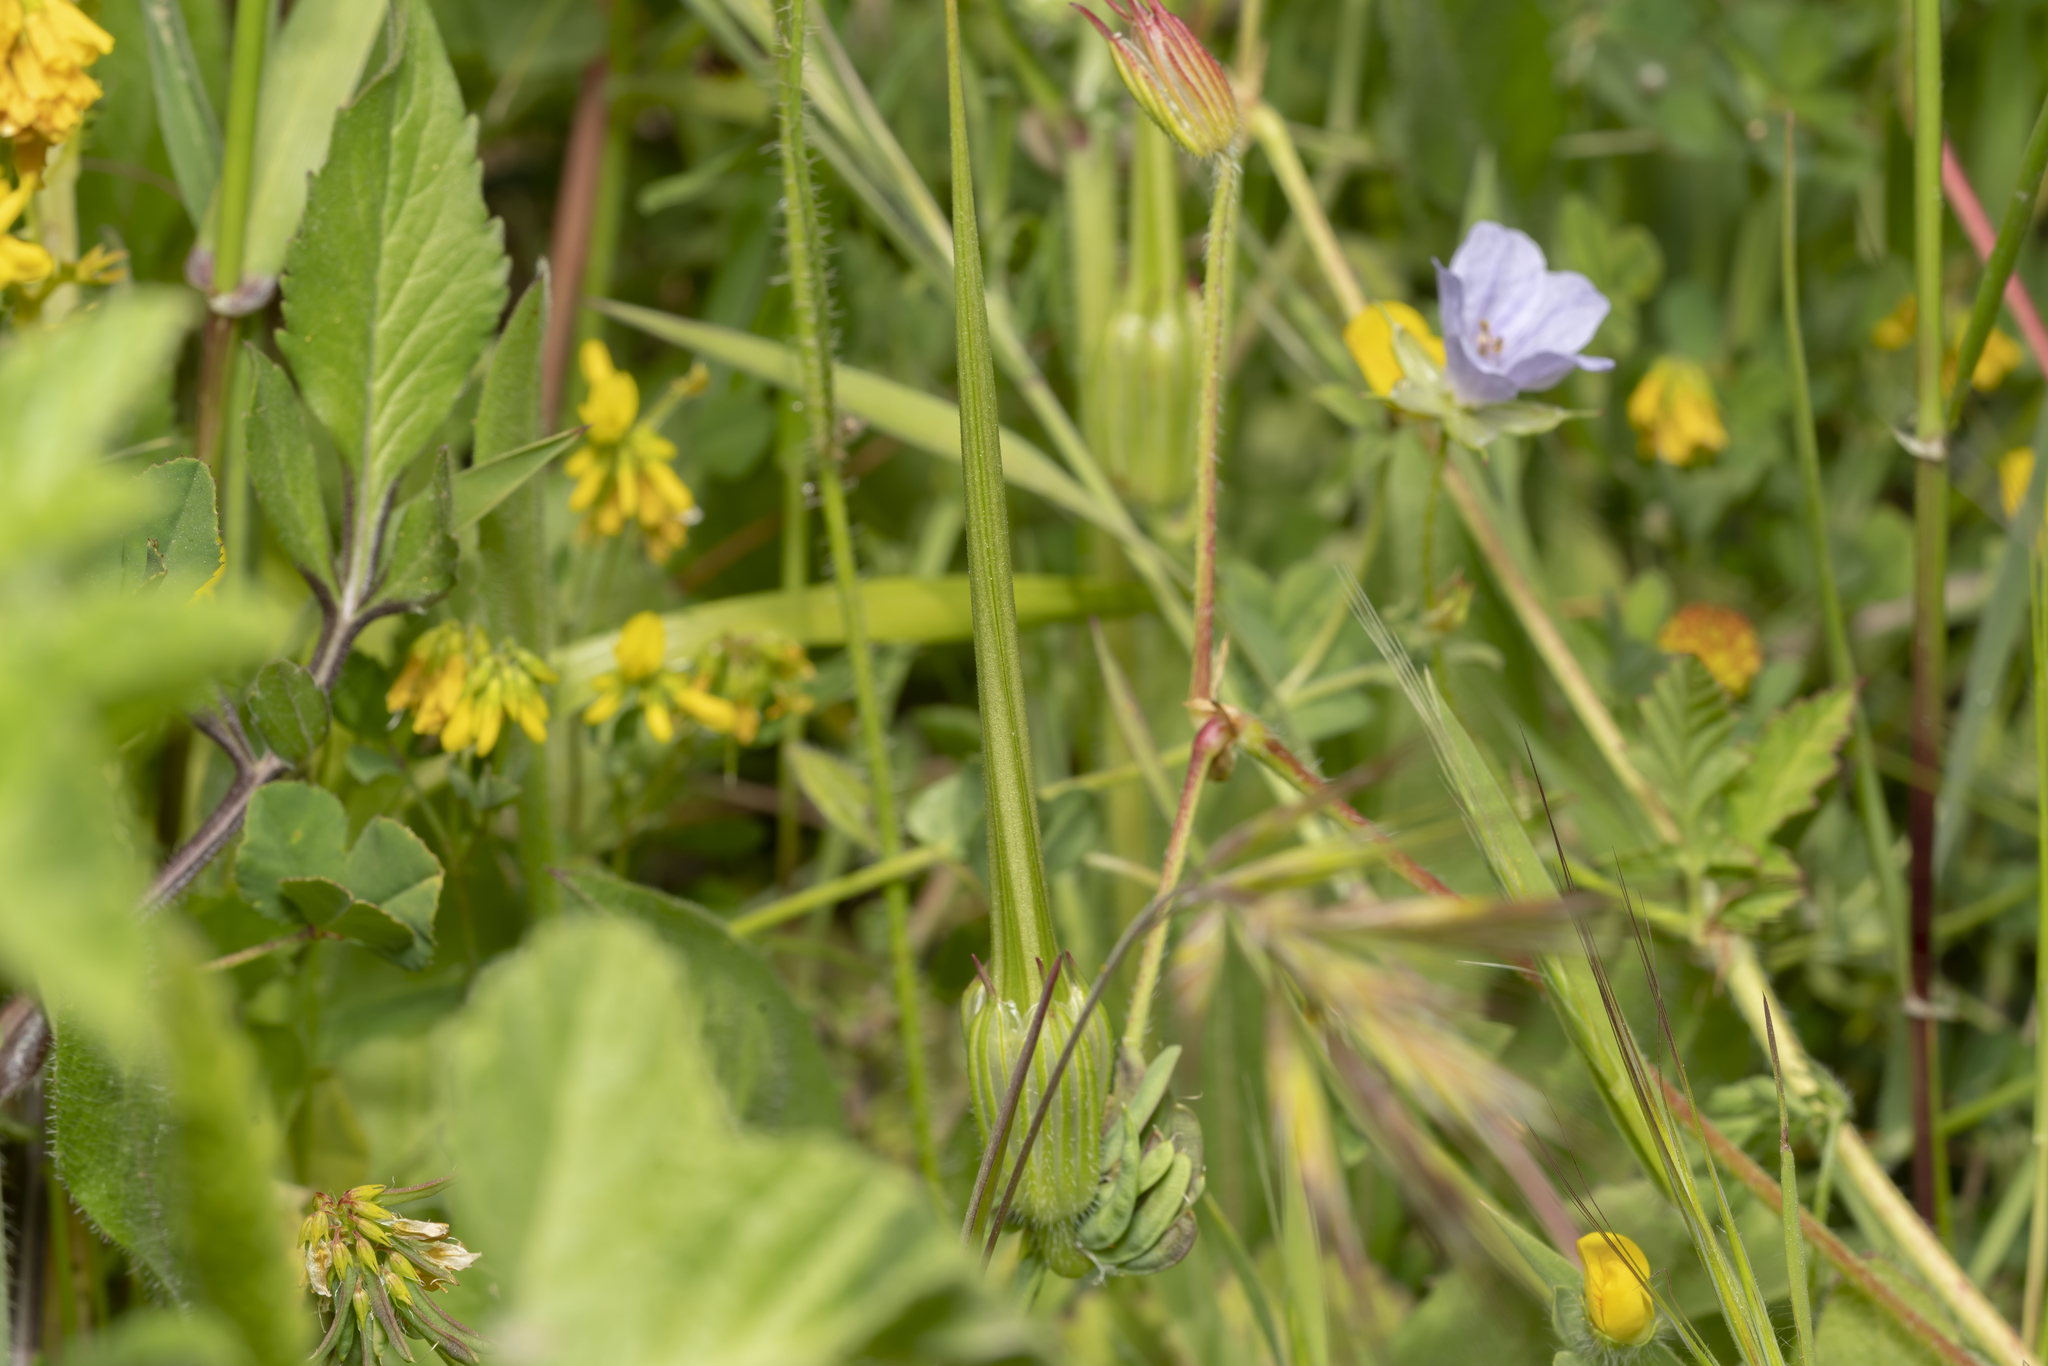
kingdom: Plantae
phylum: Tracheophyta
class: Magnoliopsida
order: Geraniales
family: Geraniaceae
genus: Erodium
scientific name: Erodium gruinum
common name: Iranian stork's bill
